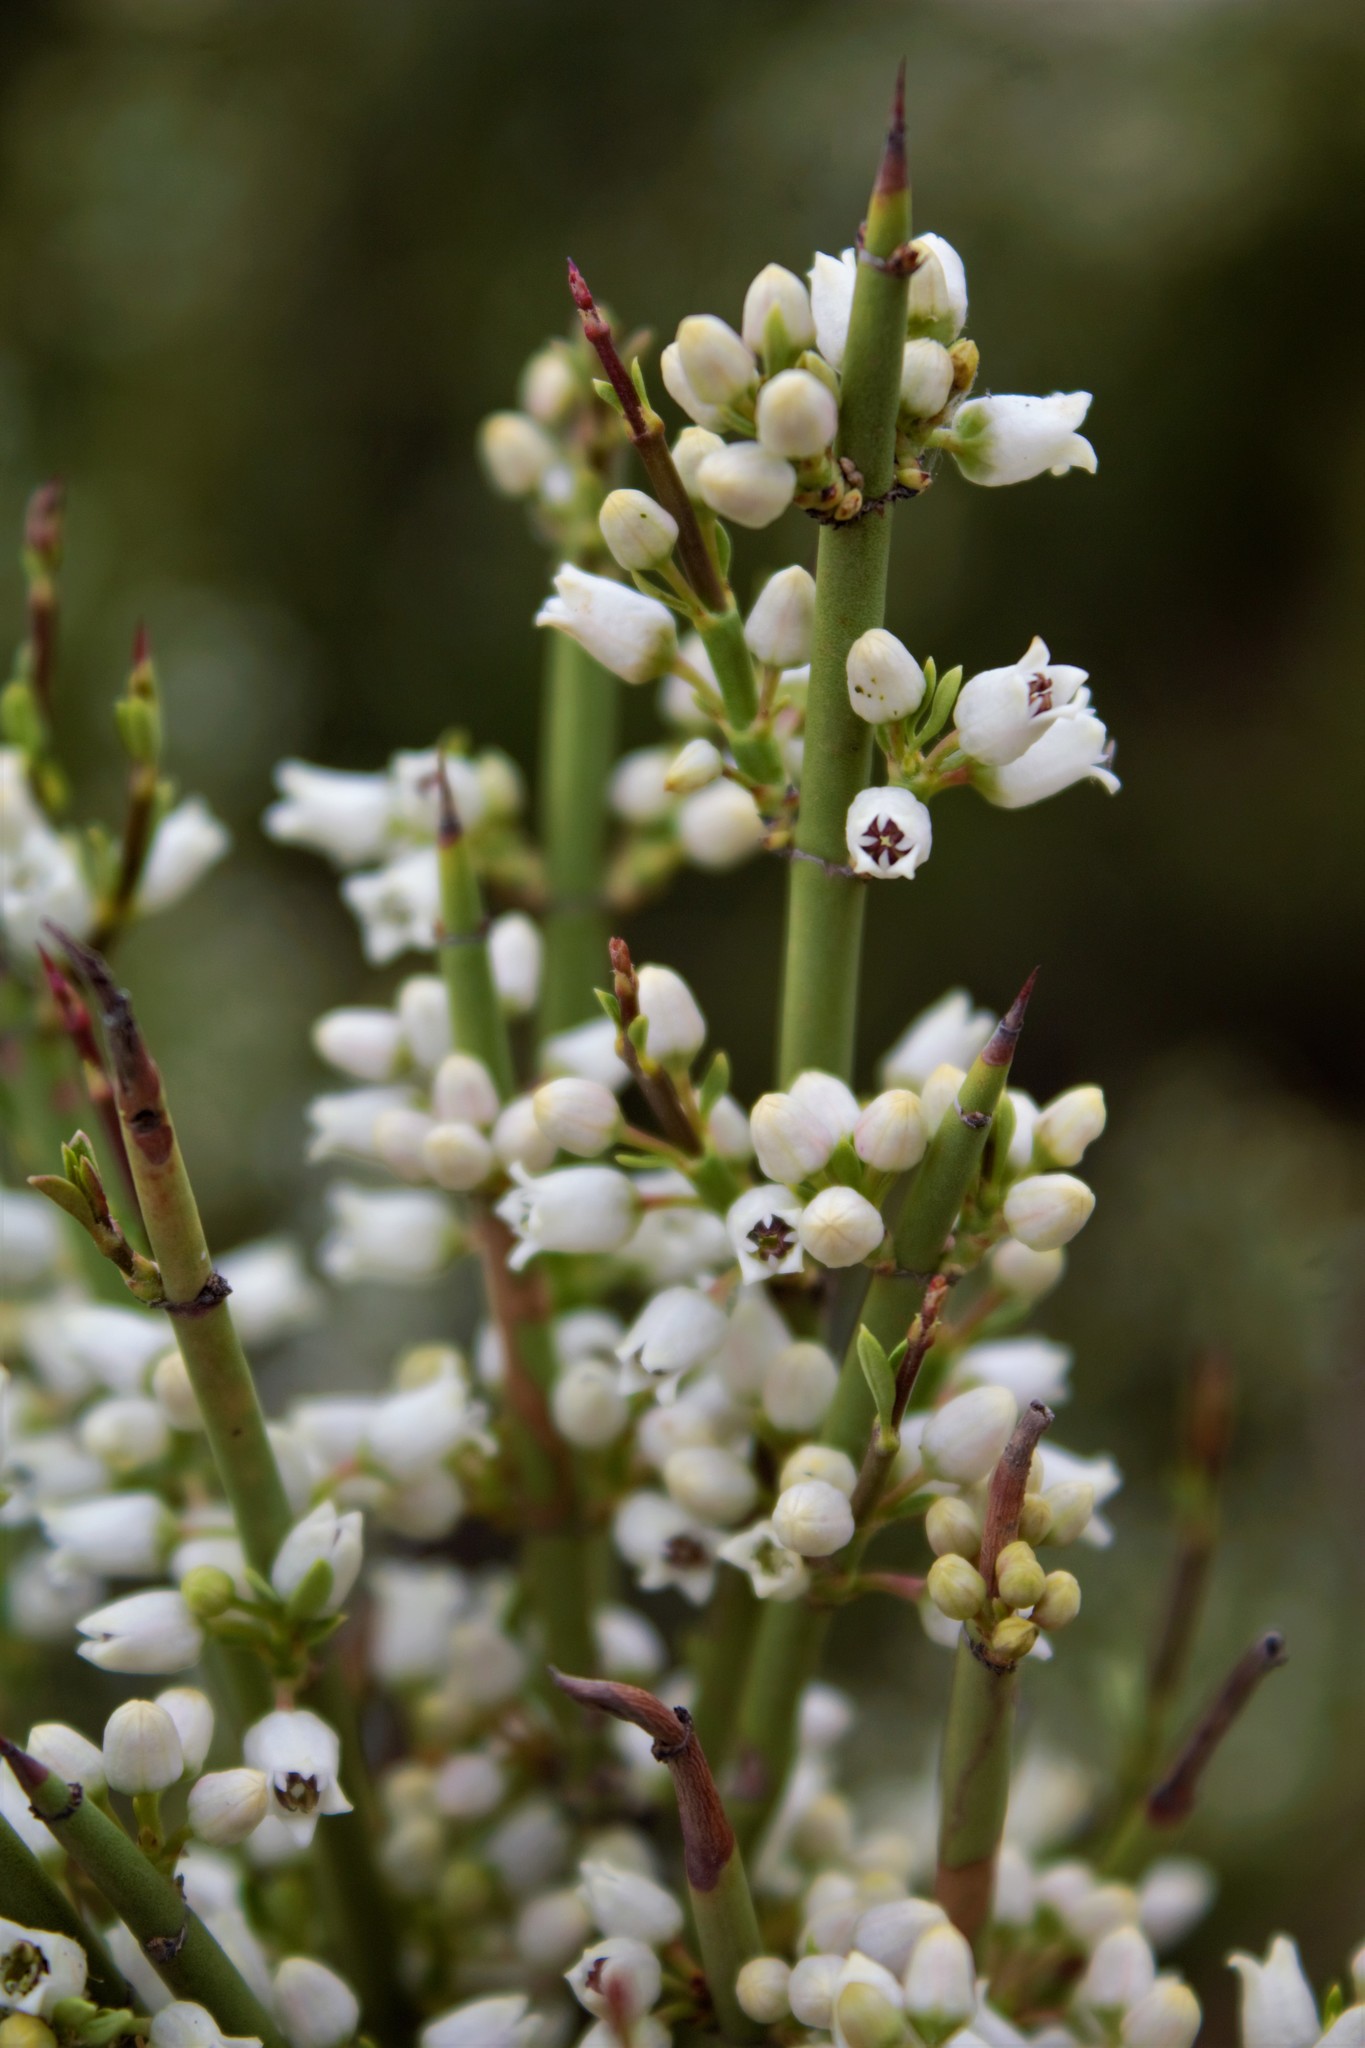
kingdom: Plantae
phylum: Tracheophyta
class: Magnoliopsida
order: Rosales
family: Rhamnaceae
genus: Discaria
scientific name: Discaria articulata
